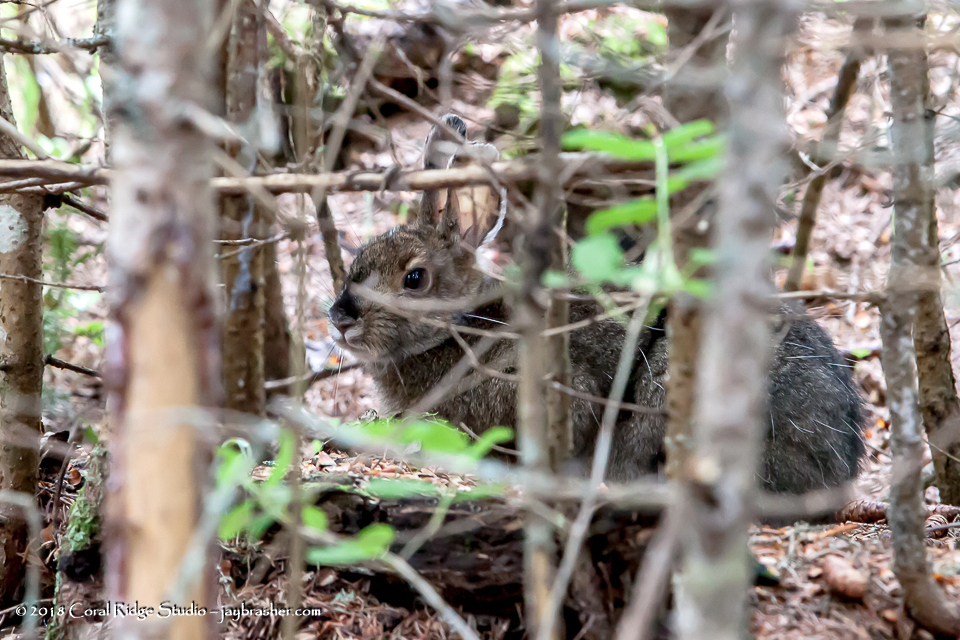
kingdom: Animalia
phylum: Chordata
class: Mammalia
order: Lagomorpha
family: Leporidae
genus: Lepus
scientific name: Lepus americanus
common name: Snowshoe hare
